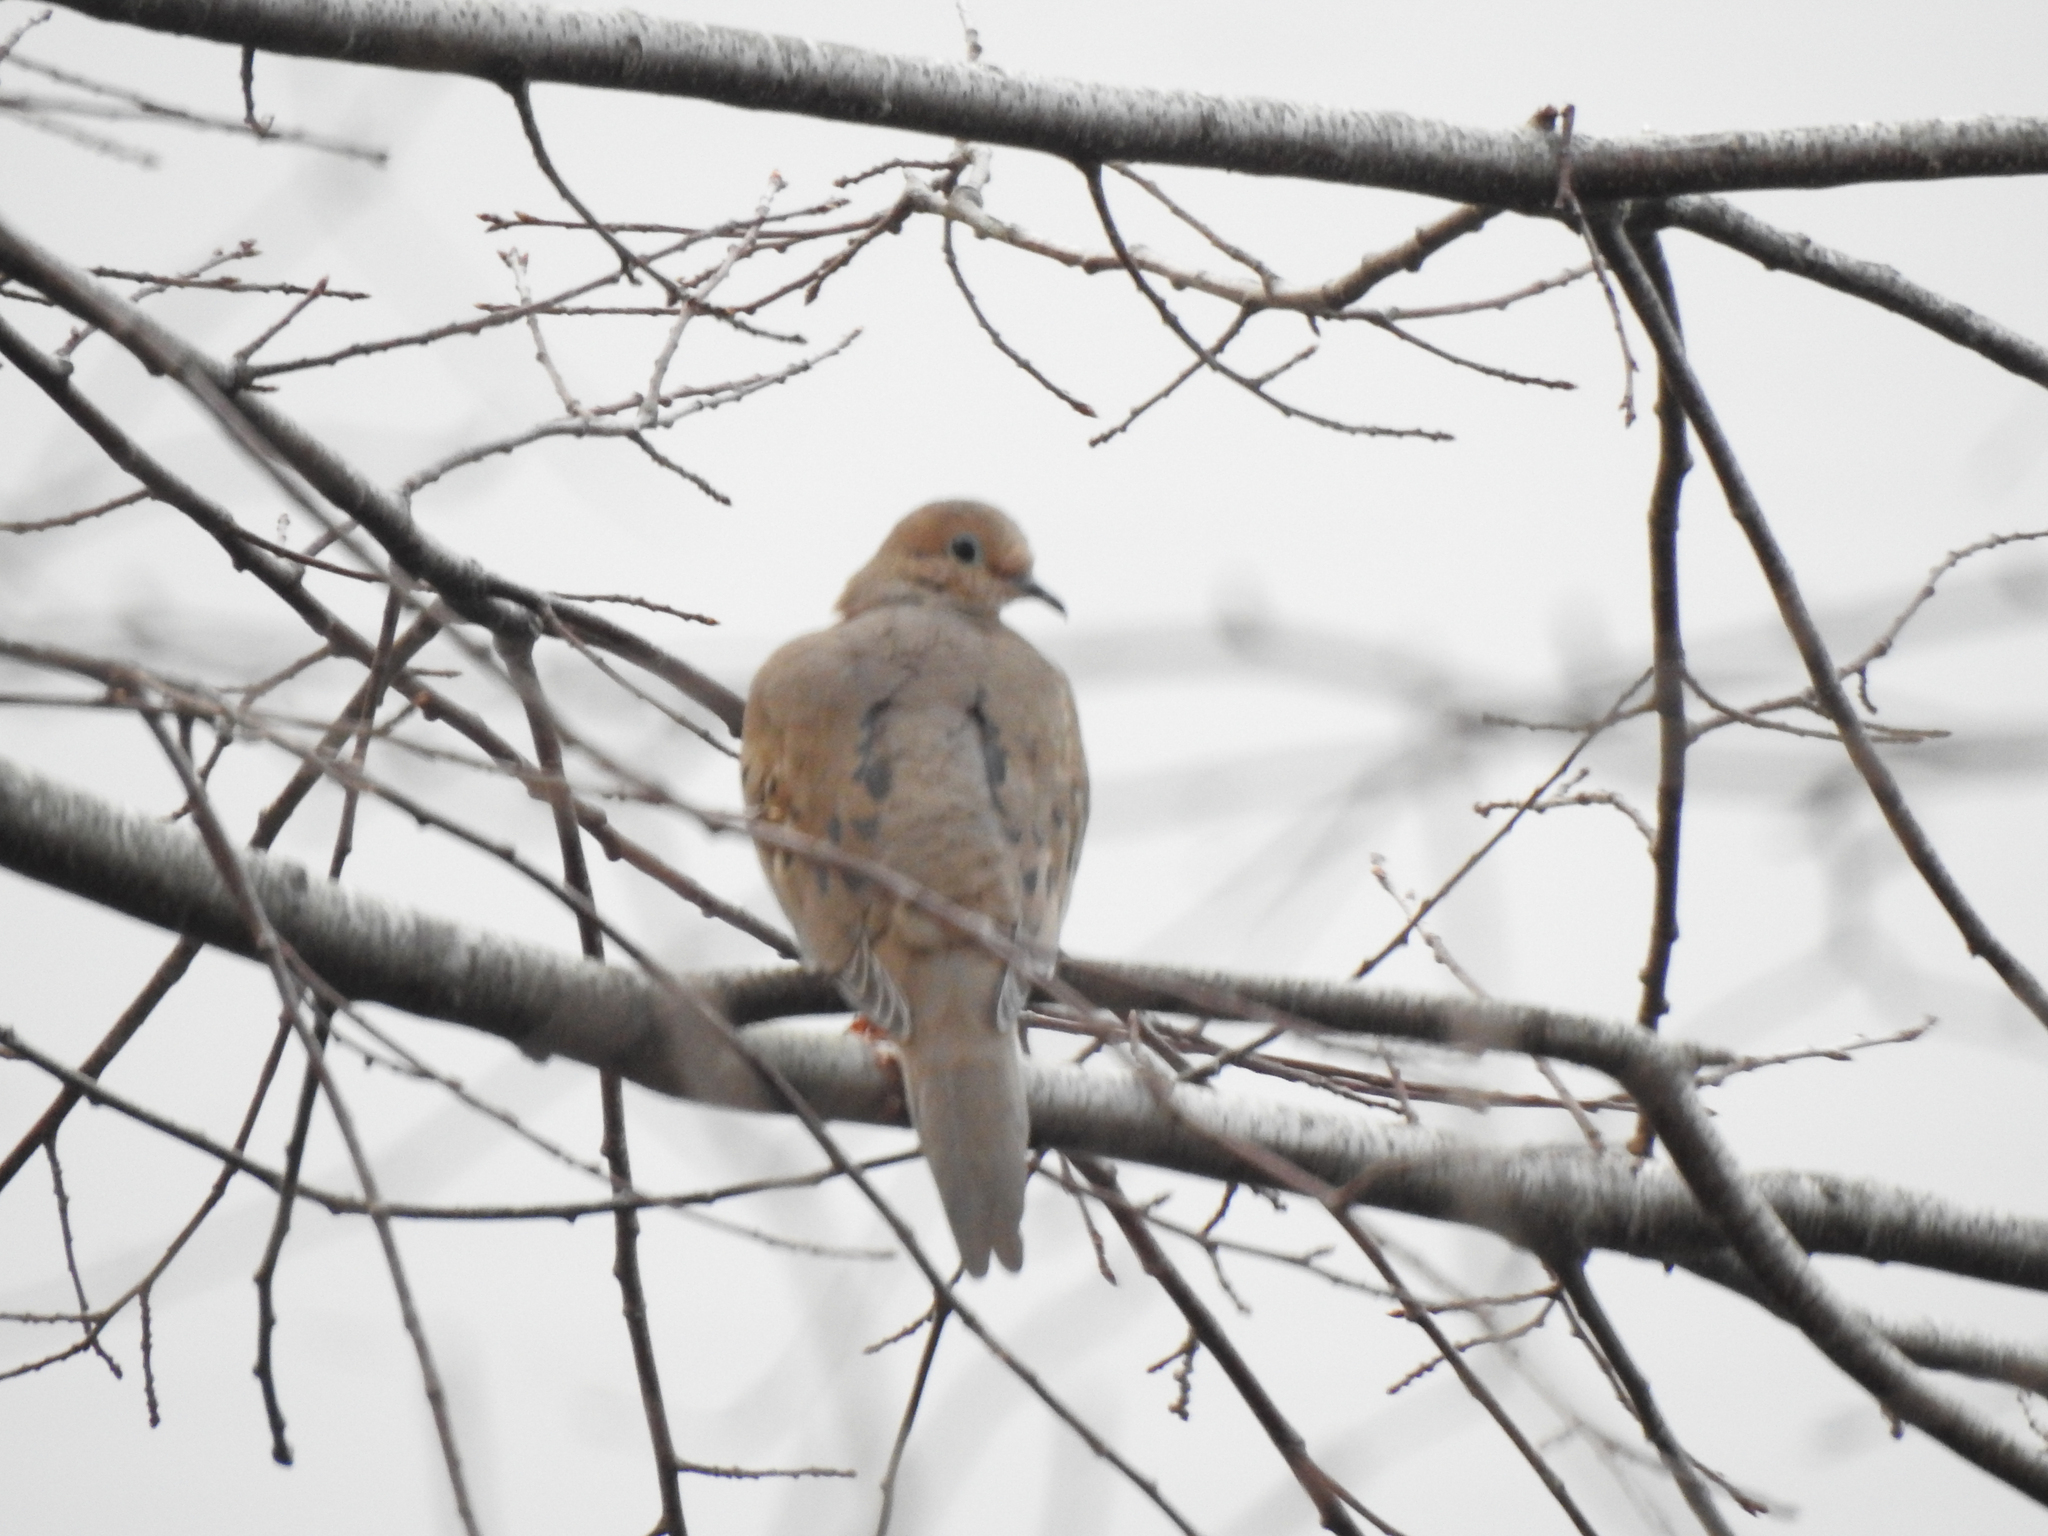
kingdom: Animalia
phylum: Chordata
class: Aves
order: Columbiformes
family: Columbidae
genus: Zenaida
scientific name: Zenaida macroura
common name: Mourning dove
